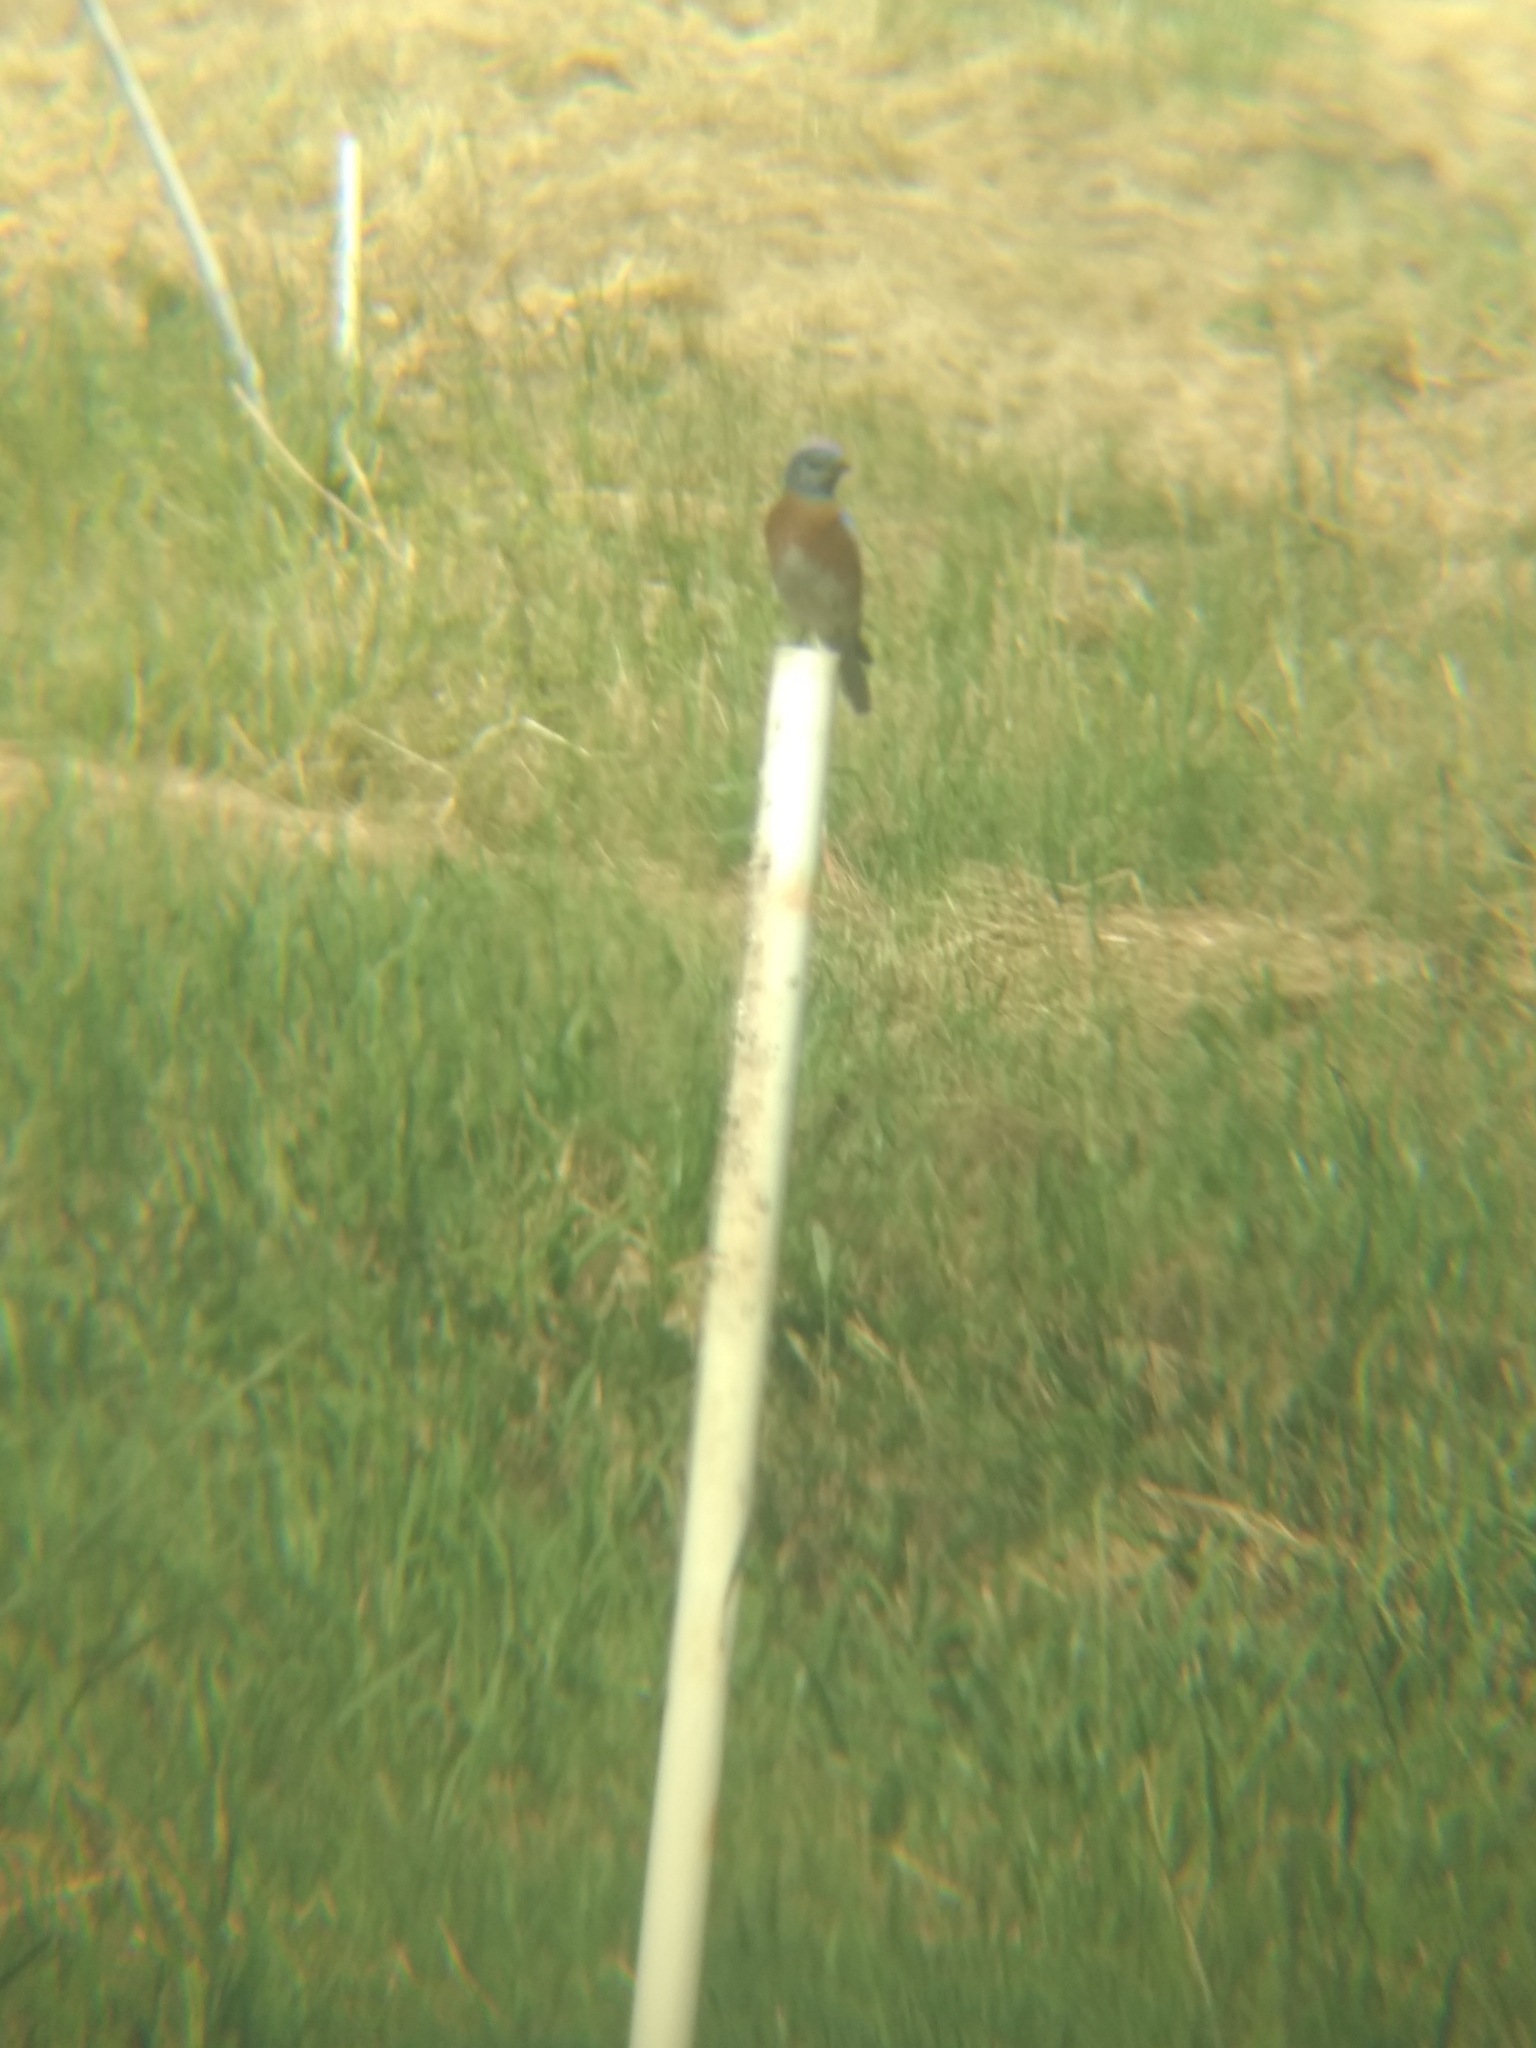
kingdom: Animalia
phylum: Chordata
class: Aves
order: Passeriformes
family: Turdidae
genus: Sialia
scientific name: Sialia mexicana
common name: Western bluebird
